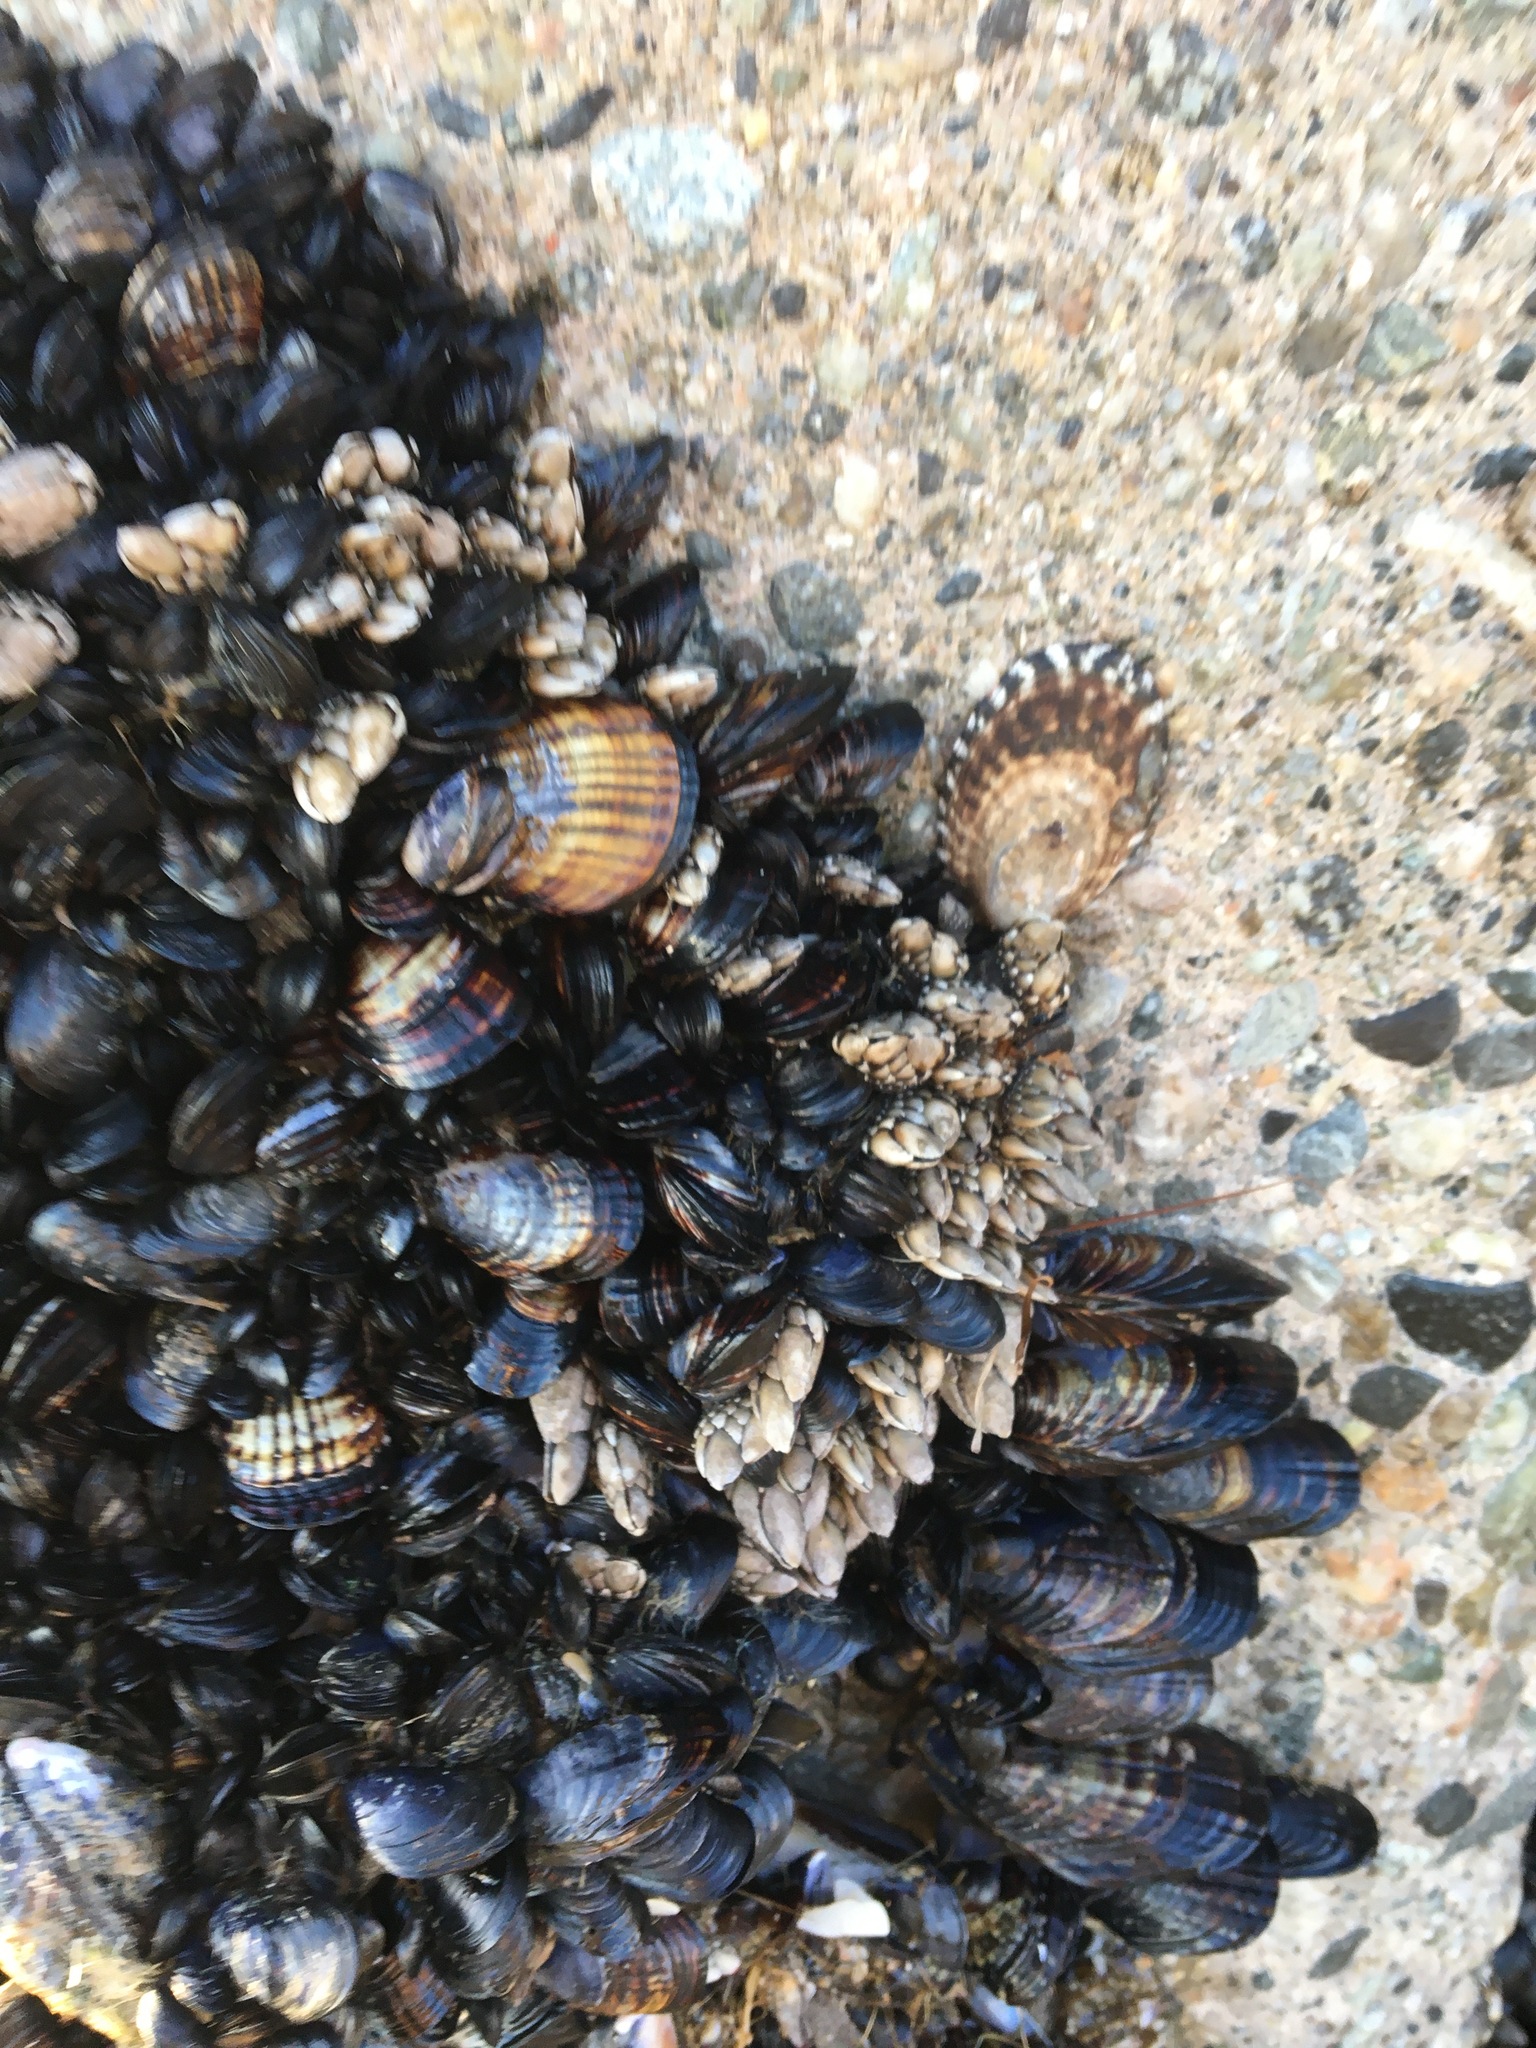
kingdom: Animalia
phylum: Mollusca
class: Bivalvia
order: Mytilida
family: Mytilidae
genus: Mytilus
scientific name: Mytilus californianus
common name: California mussel
